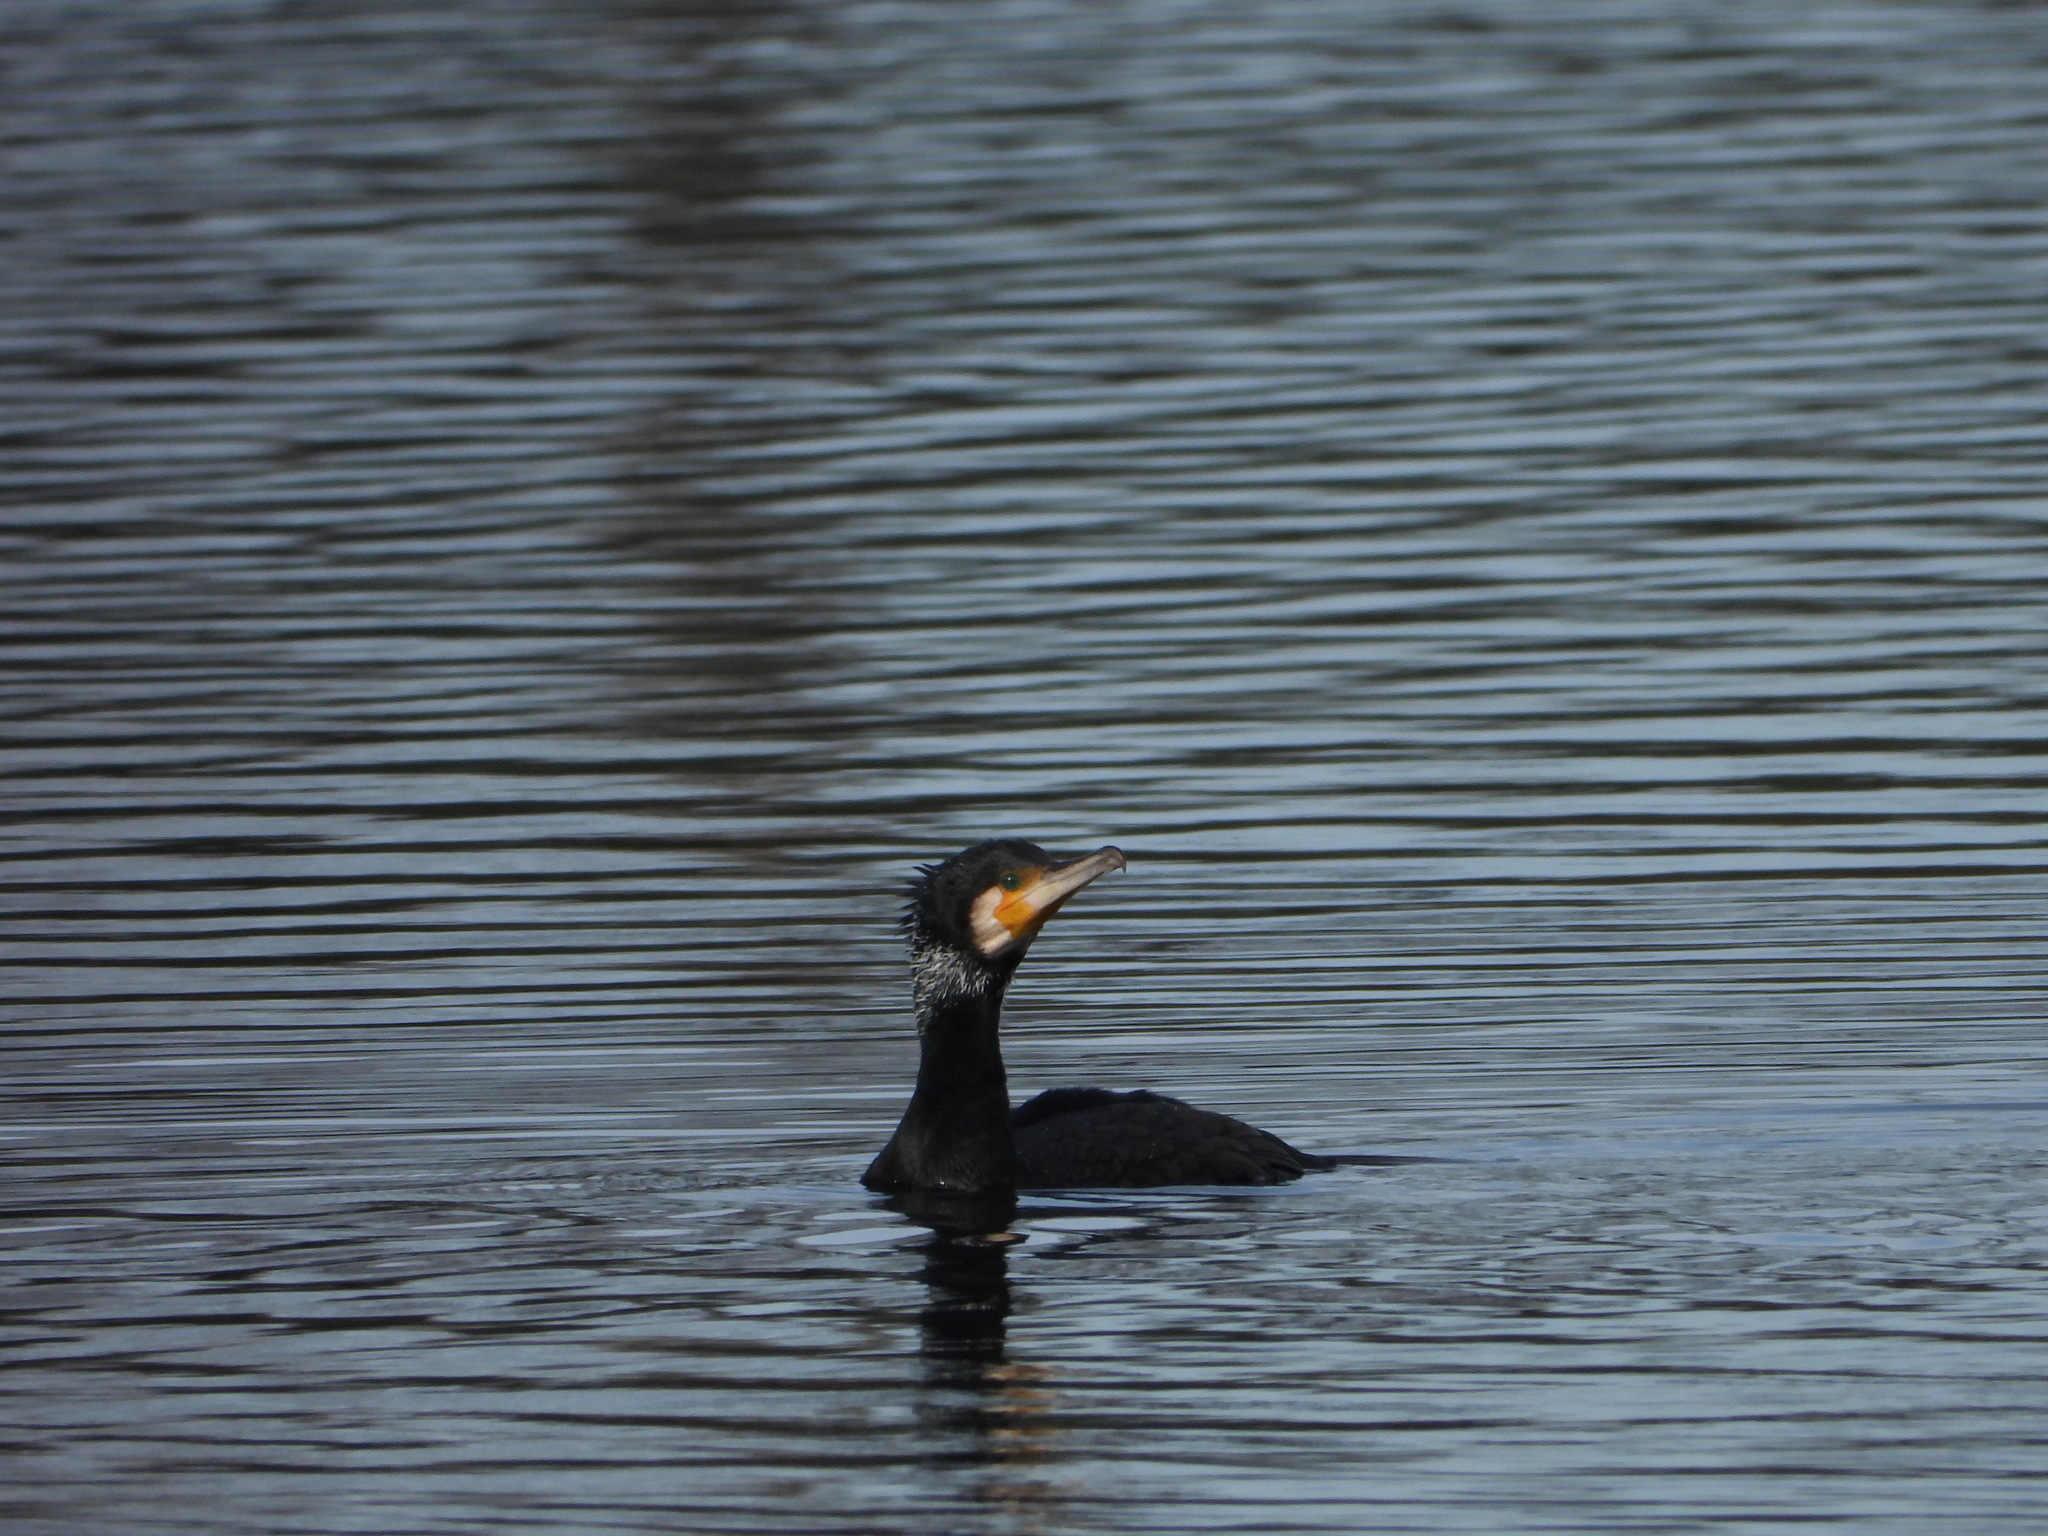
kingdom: Animalia
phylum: Chordata
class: Aves
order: Suliformes
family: Phalacrocoracidae
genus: Phalacrocorax
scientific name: Phalacrocorax carbo
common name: Great cormorant
